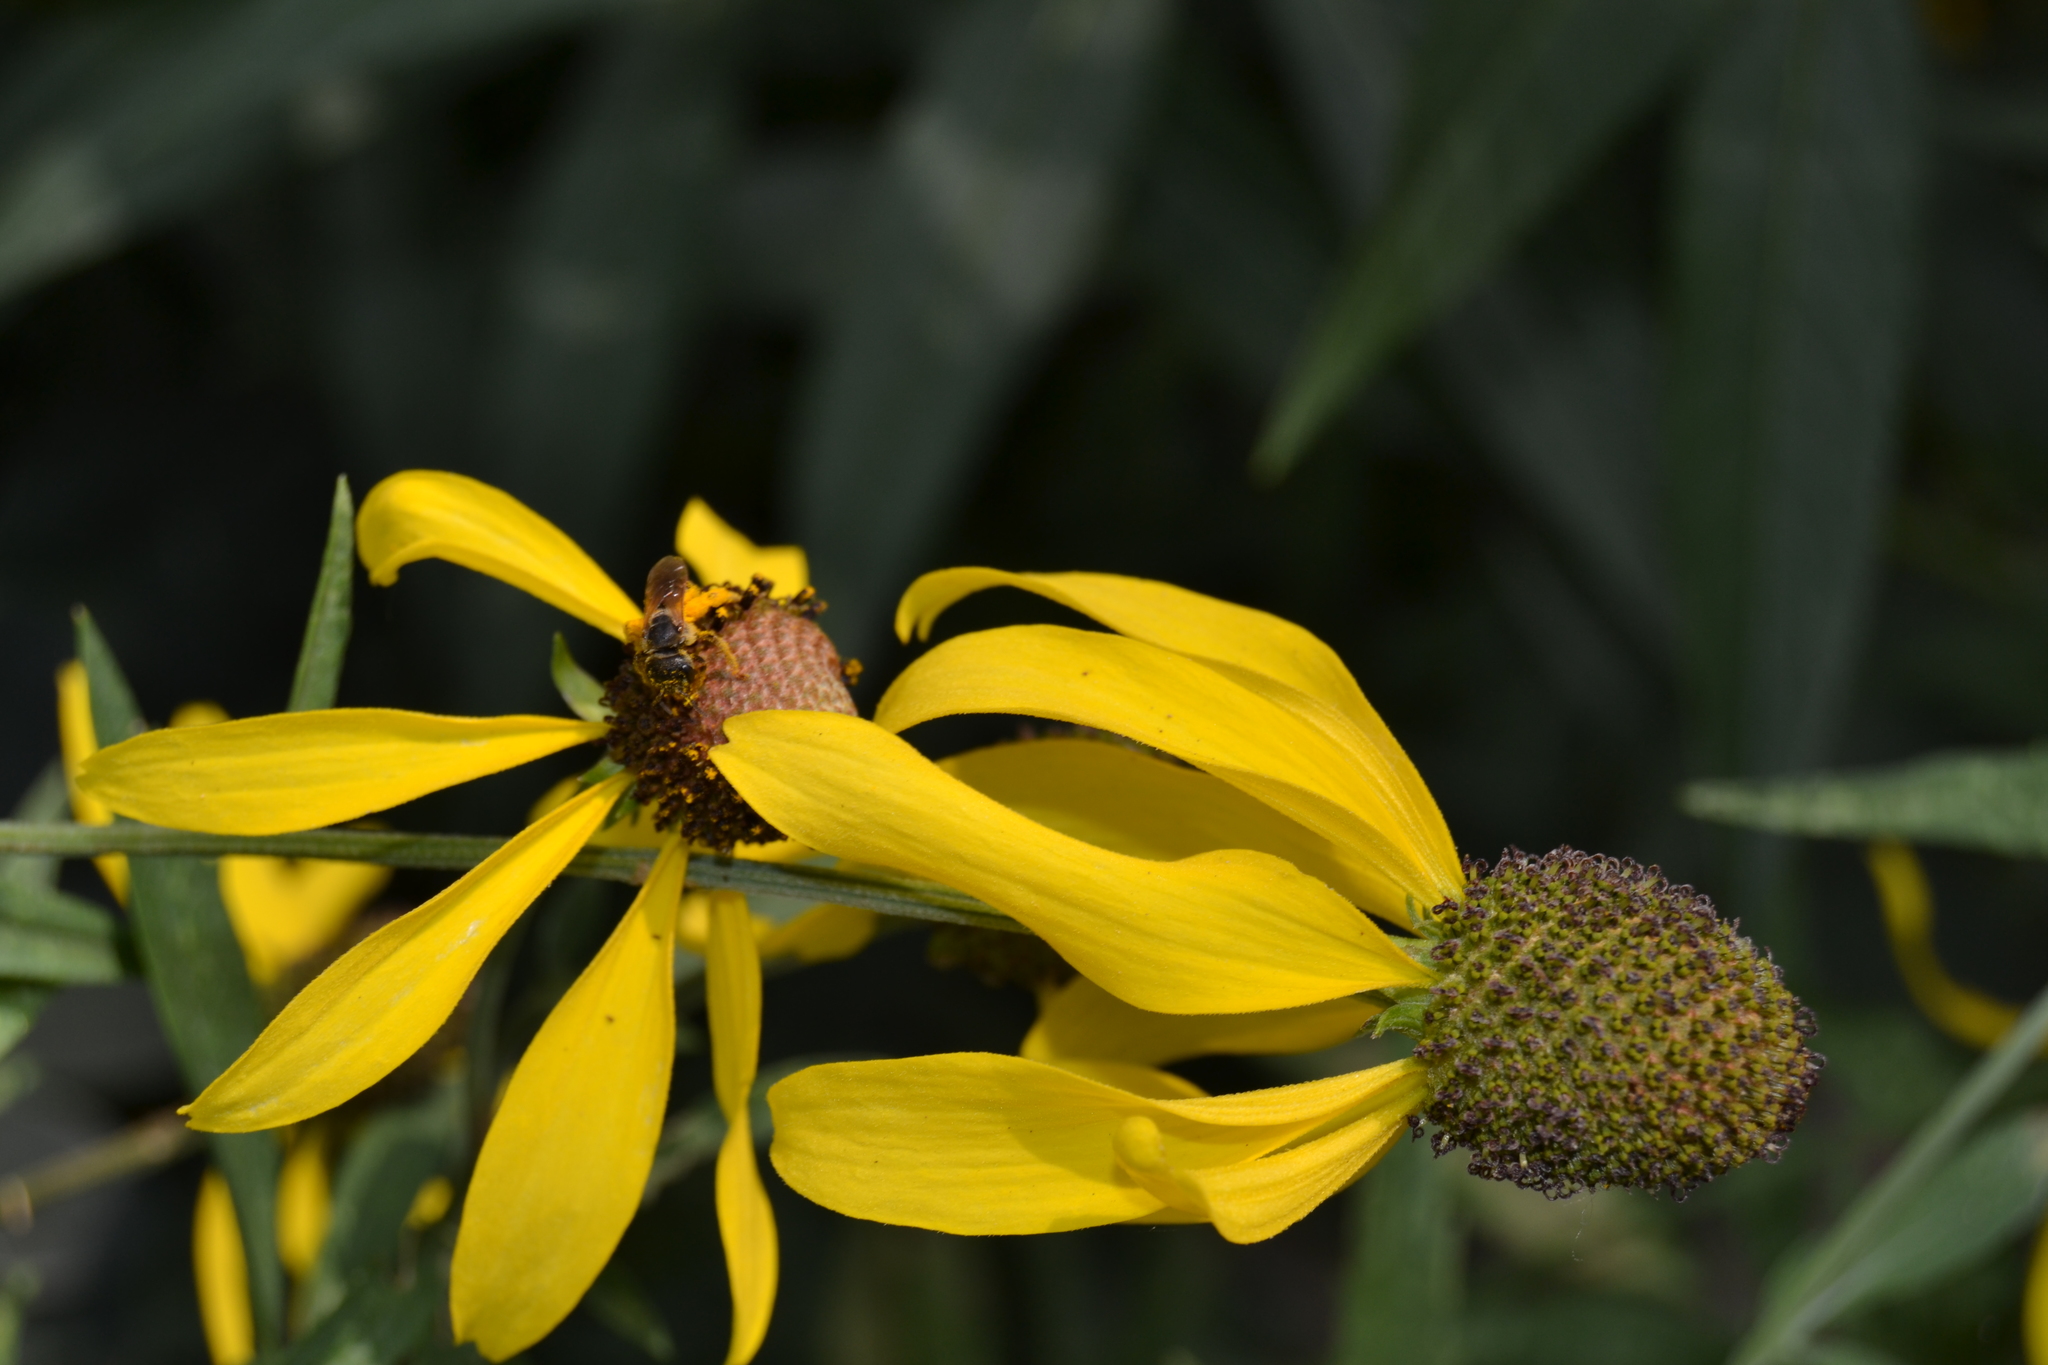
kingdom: Animalia
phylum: Arthropoda
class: Insecta
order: Hymenoptera
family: Halictidae
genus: Halictus
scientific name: Halictus ligatus
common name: Ligated furrow bee
